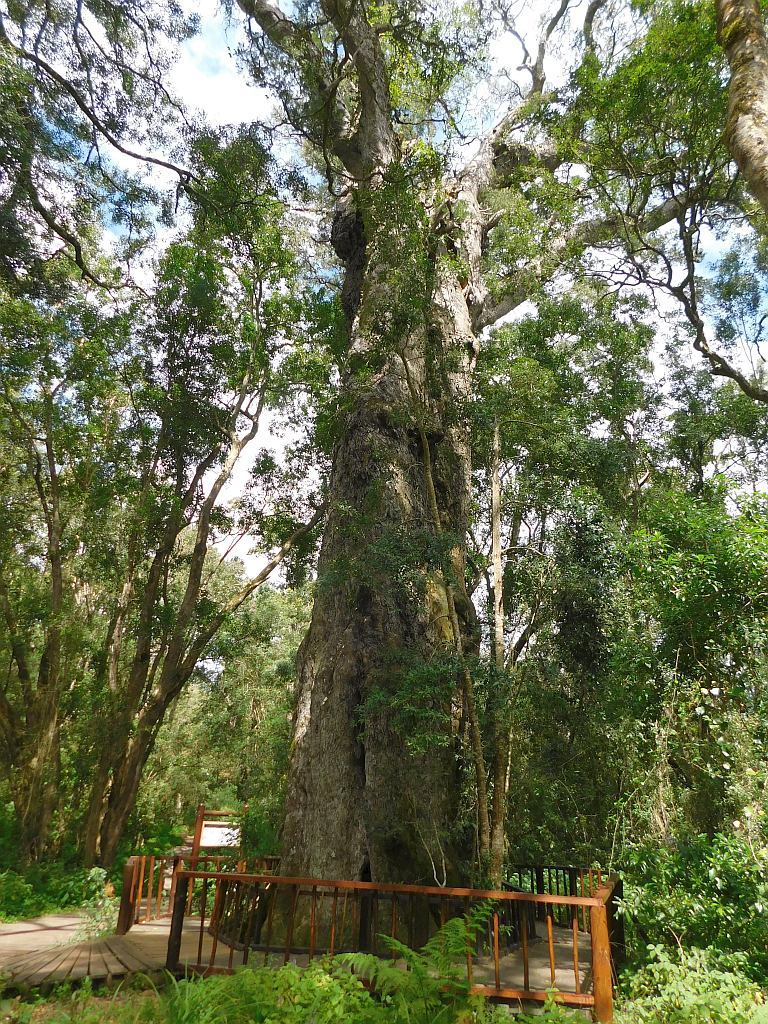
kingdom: Plantae
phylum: Tracheophyta
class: Pinopsida
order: Pinales
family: Podocarpaceae
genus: Afrocarpus
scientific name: Afrocarpus falcatus
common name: Bastard yellowwood
